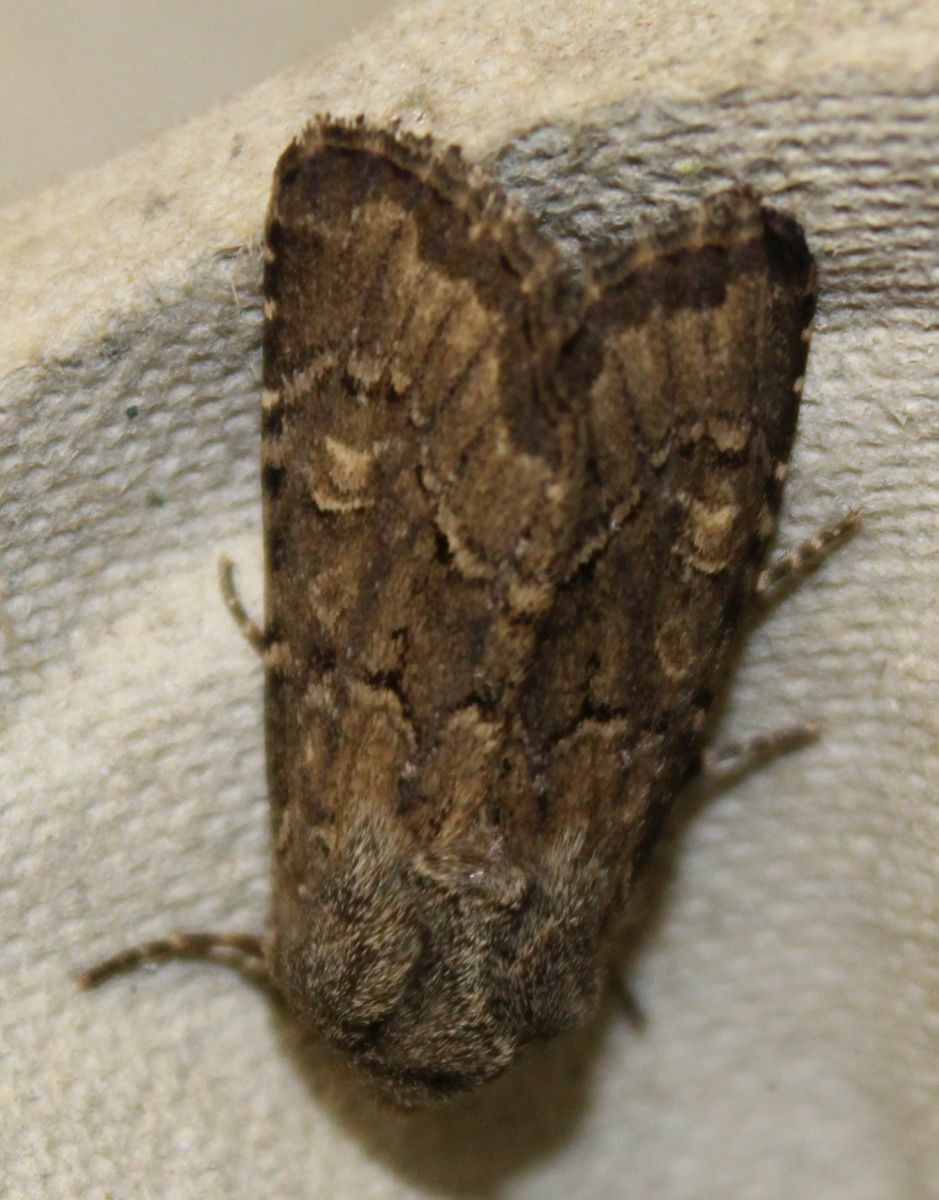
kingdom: Animalia
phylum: Arthropoda
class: Insecta
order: Lepidoptera
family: Noctuidae
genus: Luperina
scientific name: Luperina testacea
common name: Flounced rustic
